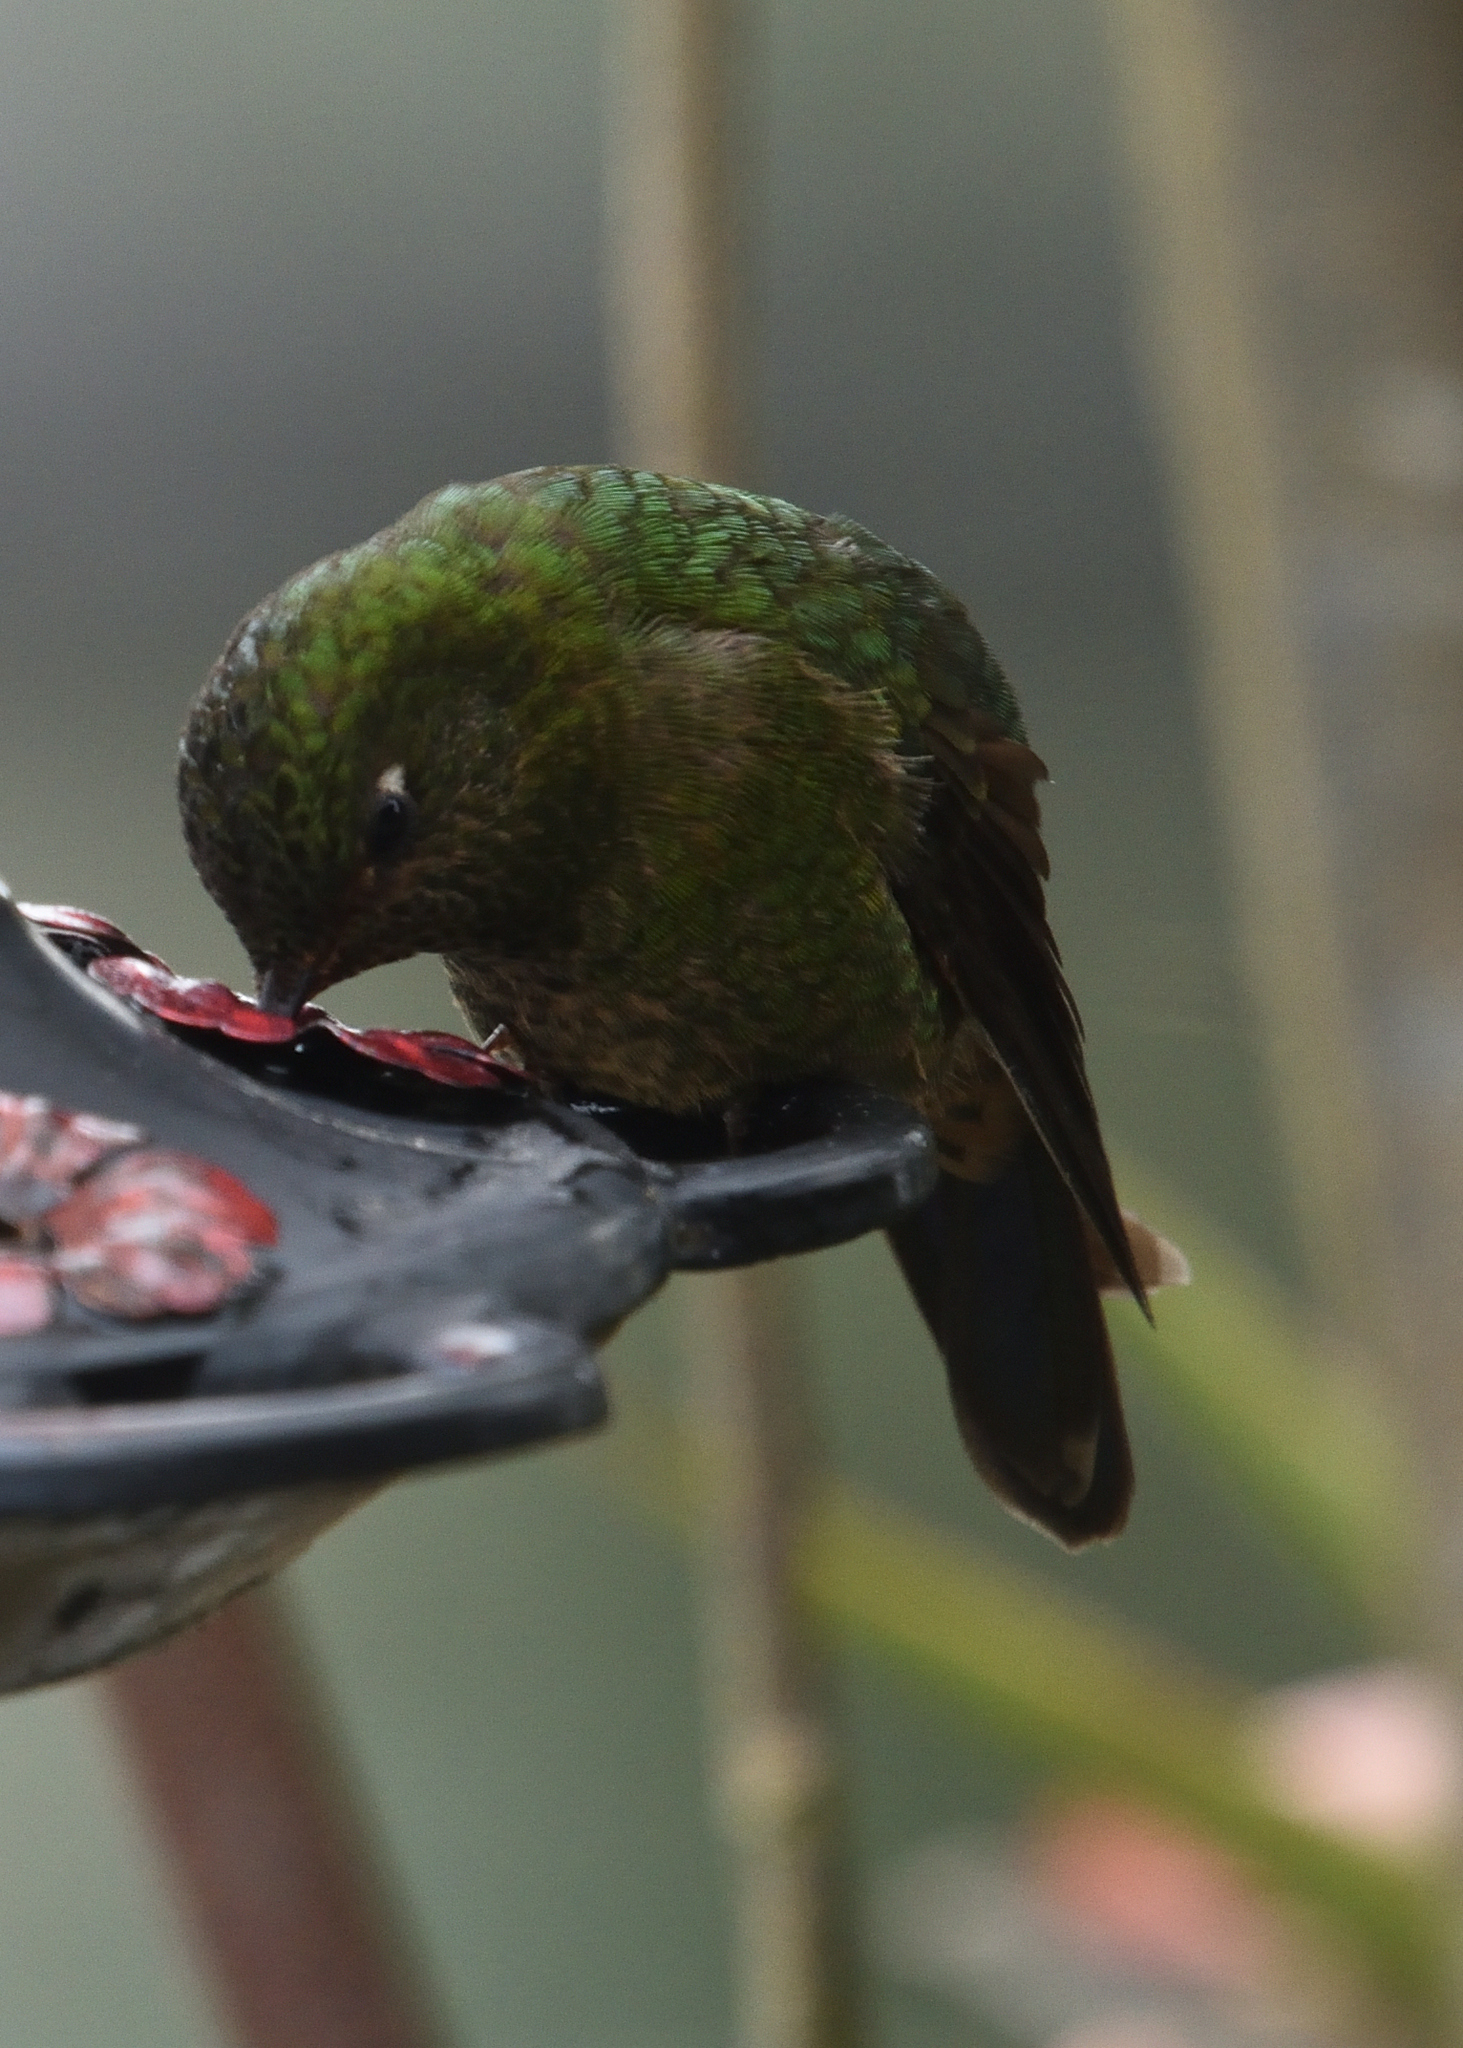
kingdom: Animalia
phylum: Chordata
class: Aves
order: Apodiformes
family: Trochilidae
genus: Metallura
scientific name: Metallura williami
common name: Viridian metaltail
